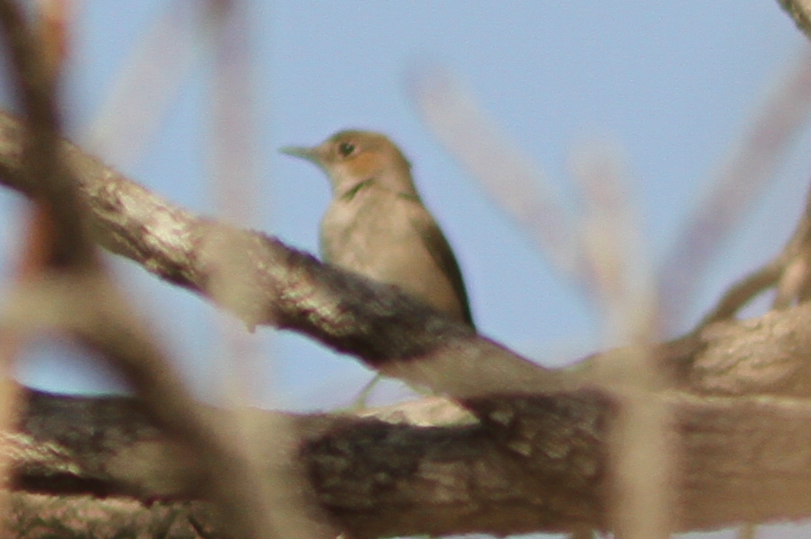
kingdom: Animalia
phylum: Chordata
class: Aves
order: Passeriformes
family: Muscicapidae
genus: Oenanthe
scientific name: Oenanthe familiaris
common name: Familiar chat
